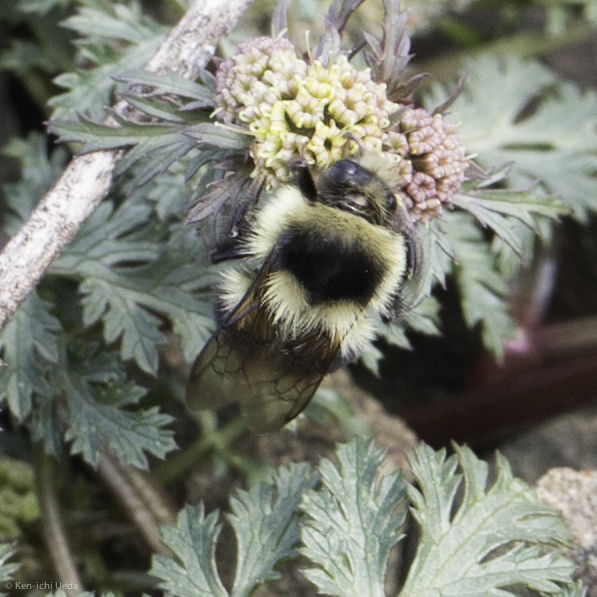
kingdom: Animalia
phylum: Arthropoda
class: Insecta
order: Hymenoptera
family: Apidae
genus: Bombus
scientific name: Bombus melanopygus
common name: Black tail bumble bee
